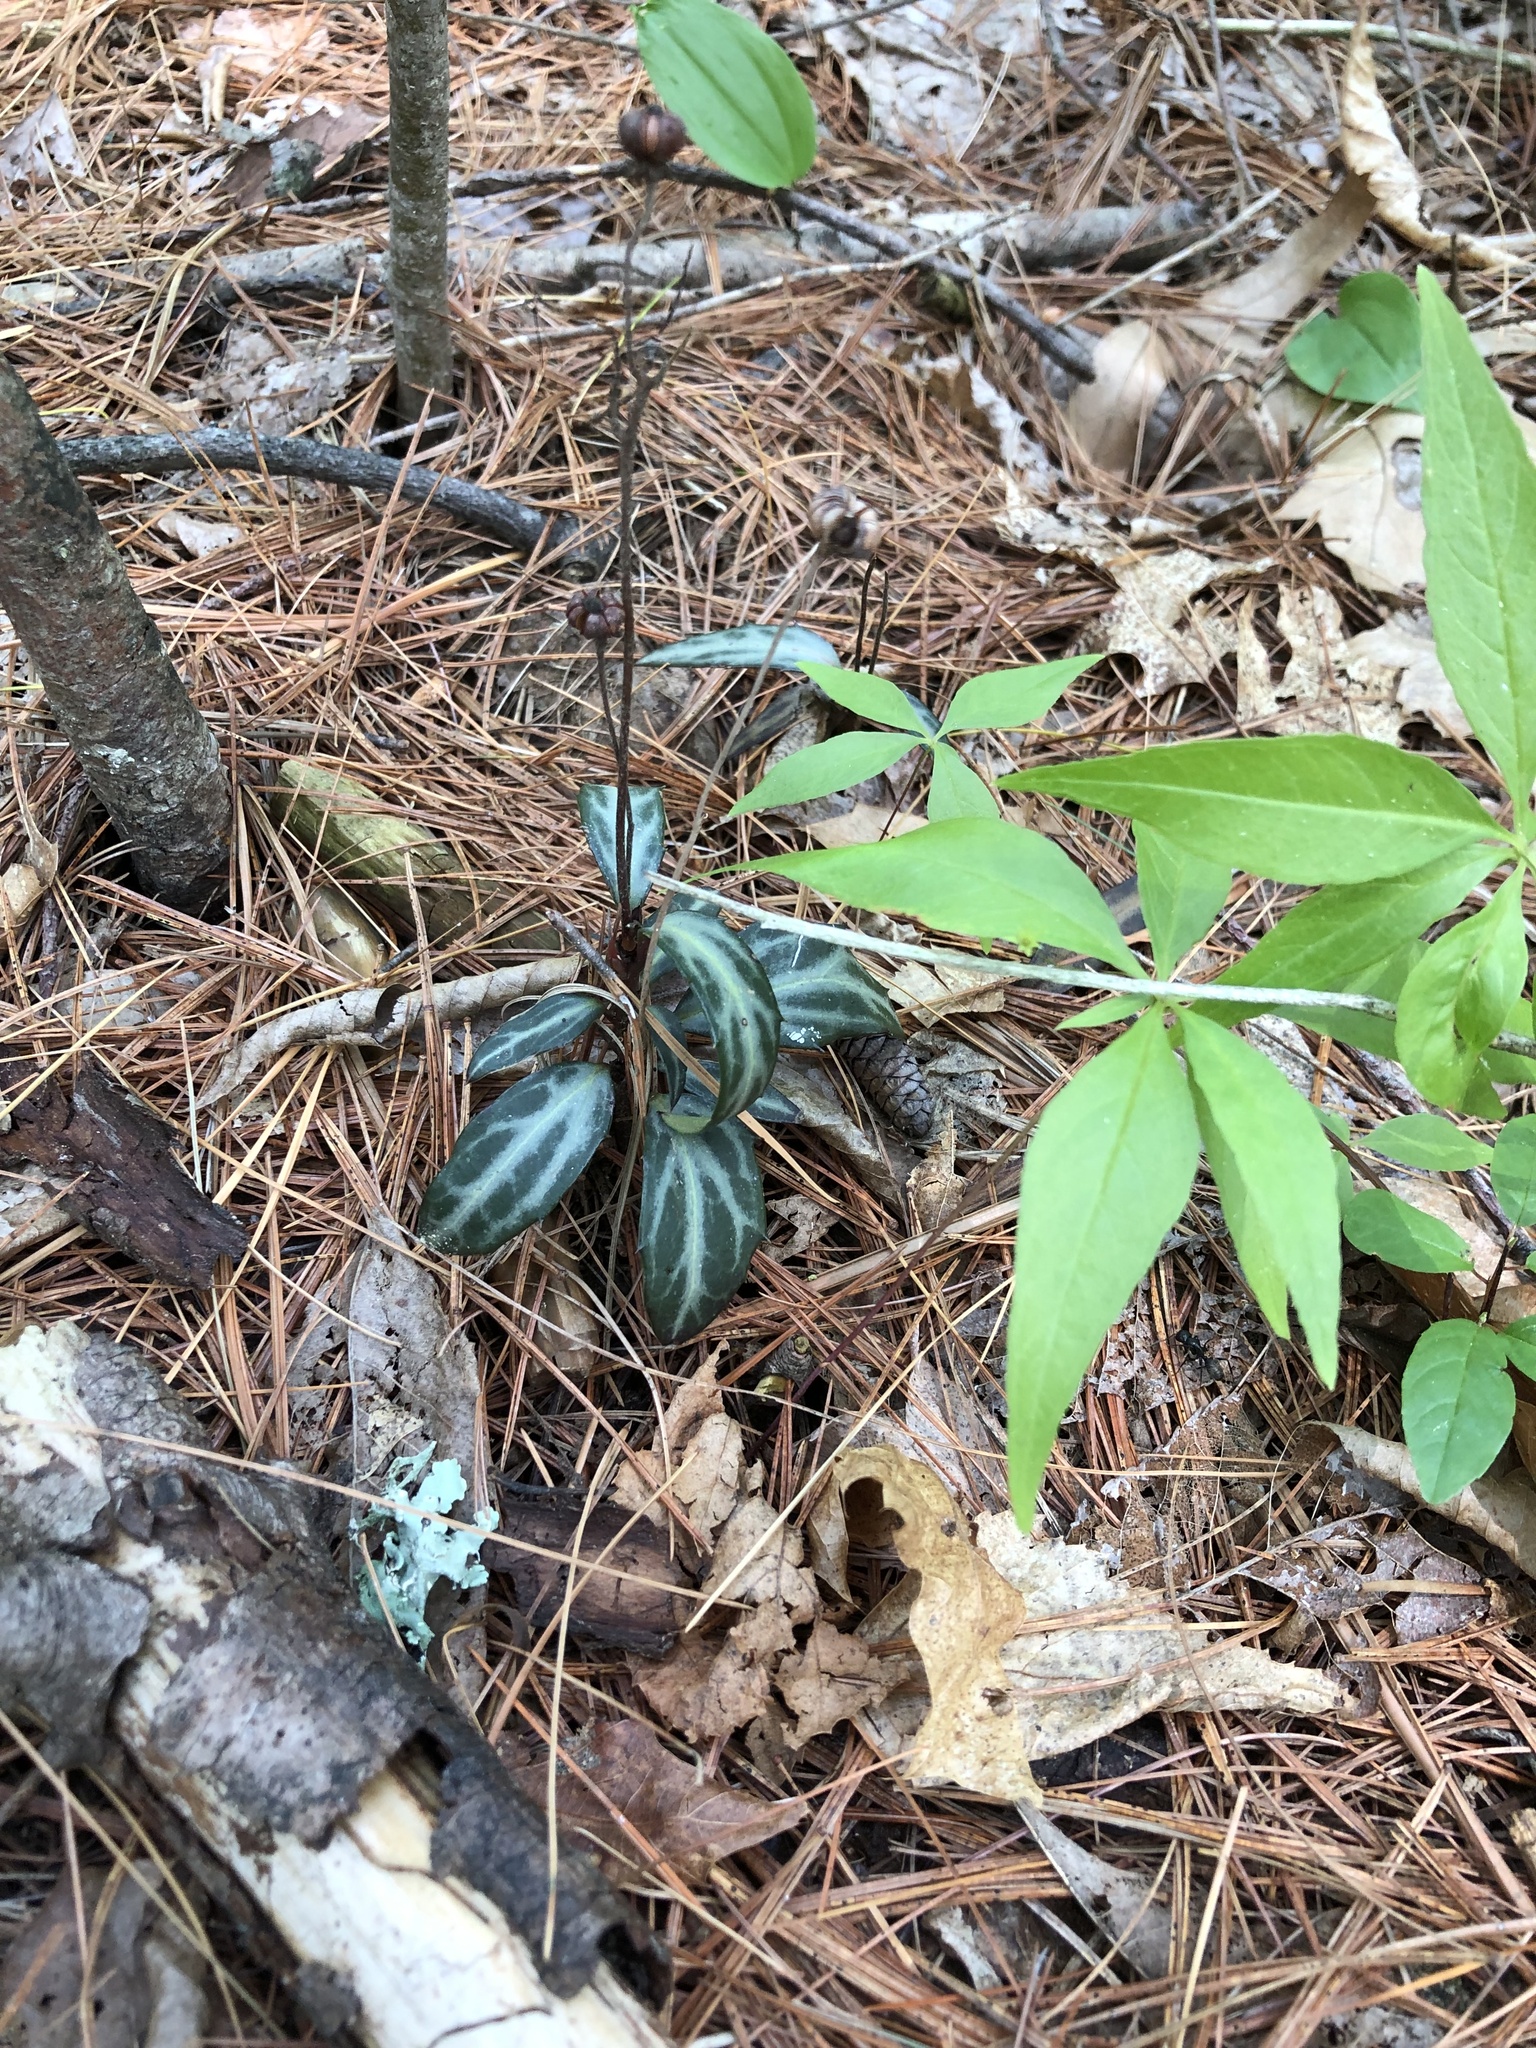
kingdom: Plantae
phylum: Tracheophyta
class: Magnoliopsida
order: Ericales
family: Ericaceae
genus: Chimaphila
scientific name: Chimaphila maculata
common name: Spotted pipsissewa
